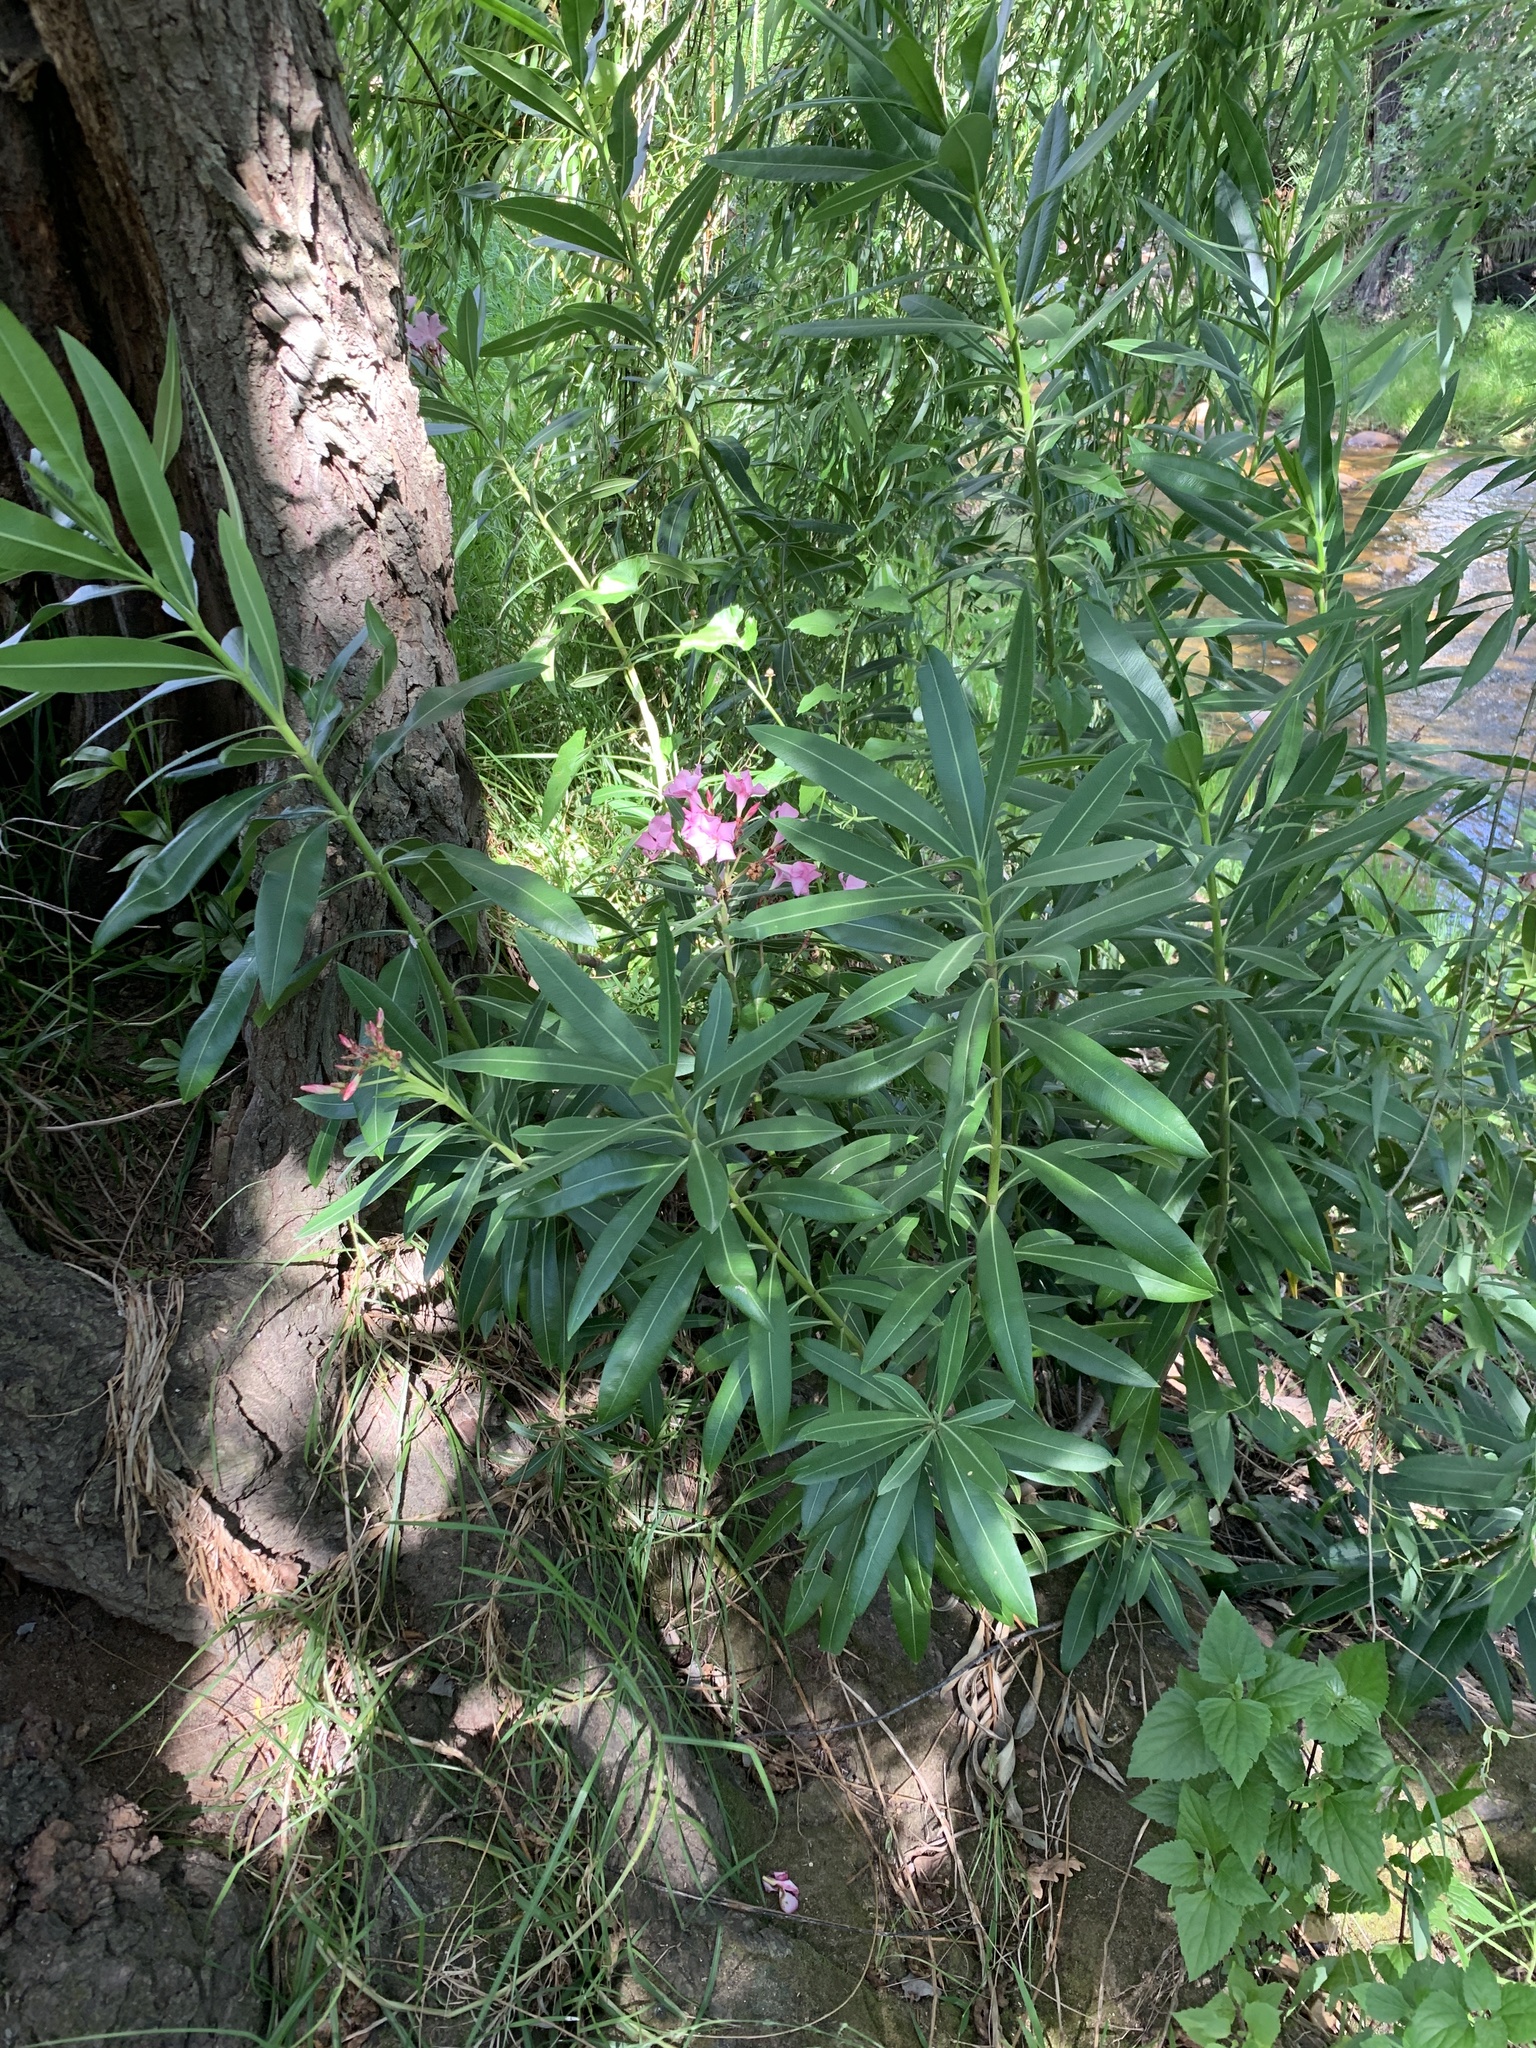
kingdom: Plantae
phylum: Tracheophyta
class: Magnoliopsida
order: Gentianales
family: Apocynaceae
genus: Nerium
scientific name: Nerium oleander
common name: Oleander
